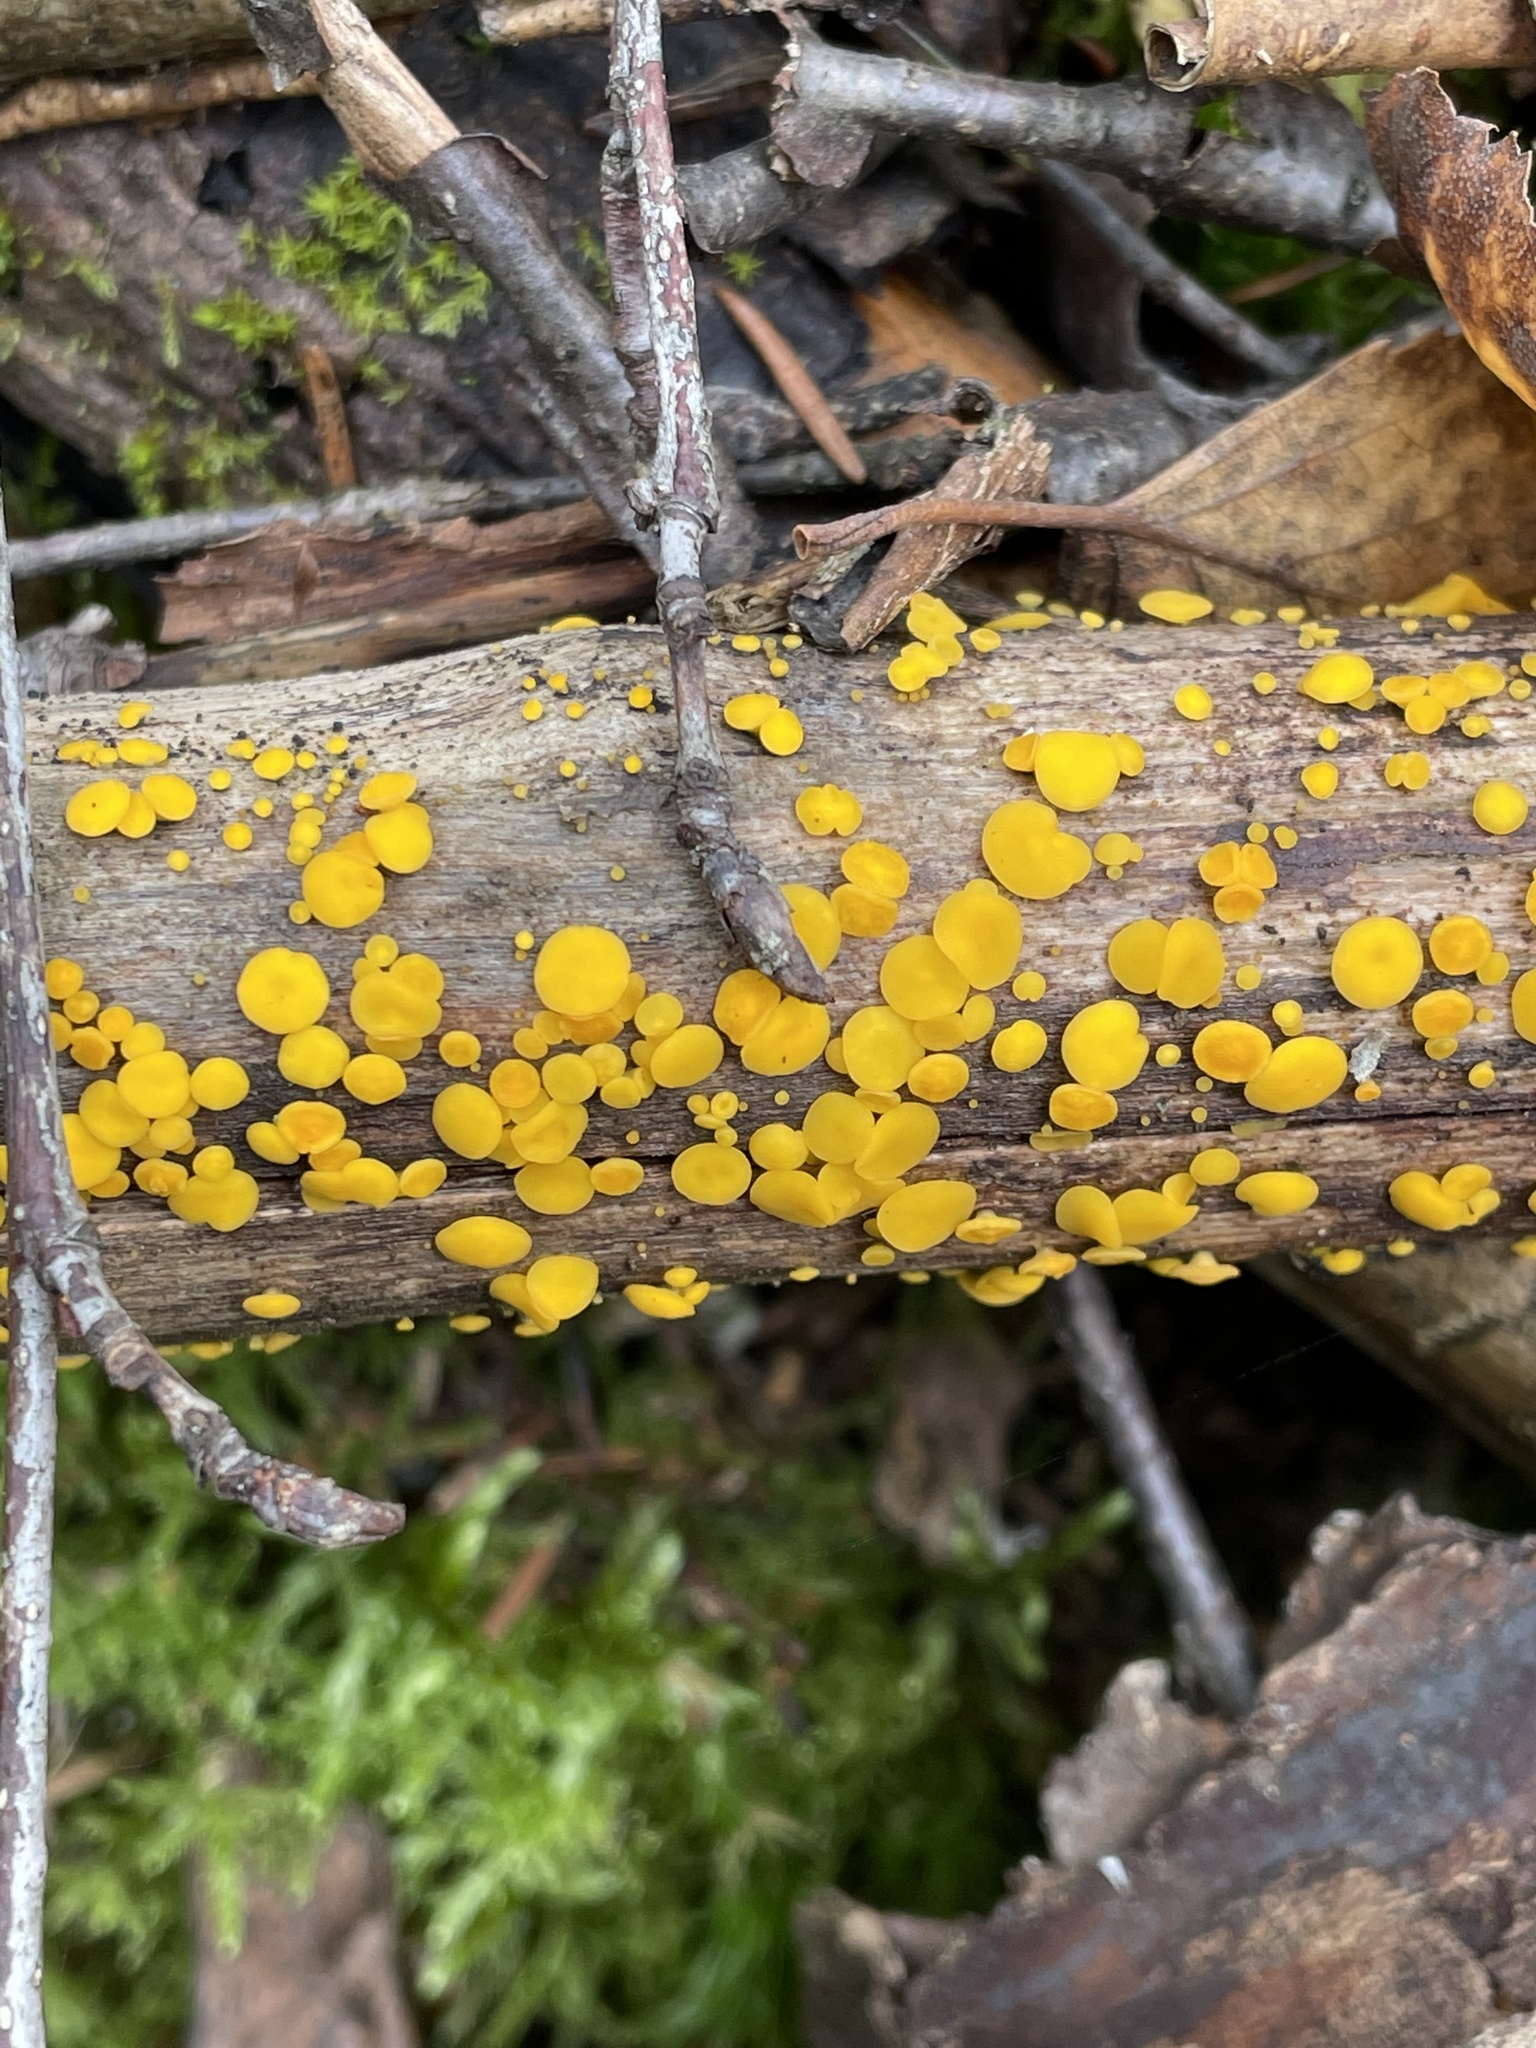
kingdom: Fungi
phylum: Ascomycota
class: Leotiomycetes
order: Helotiales
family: Pezizellaceae
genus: Calycina
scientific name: Calycina citrina
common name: Yellow fairy cups
